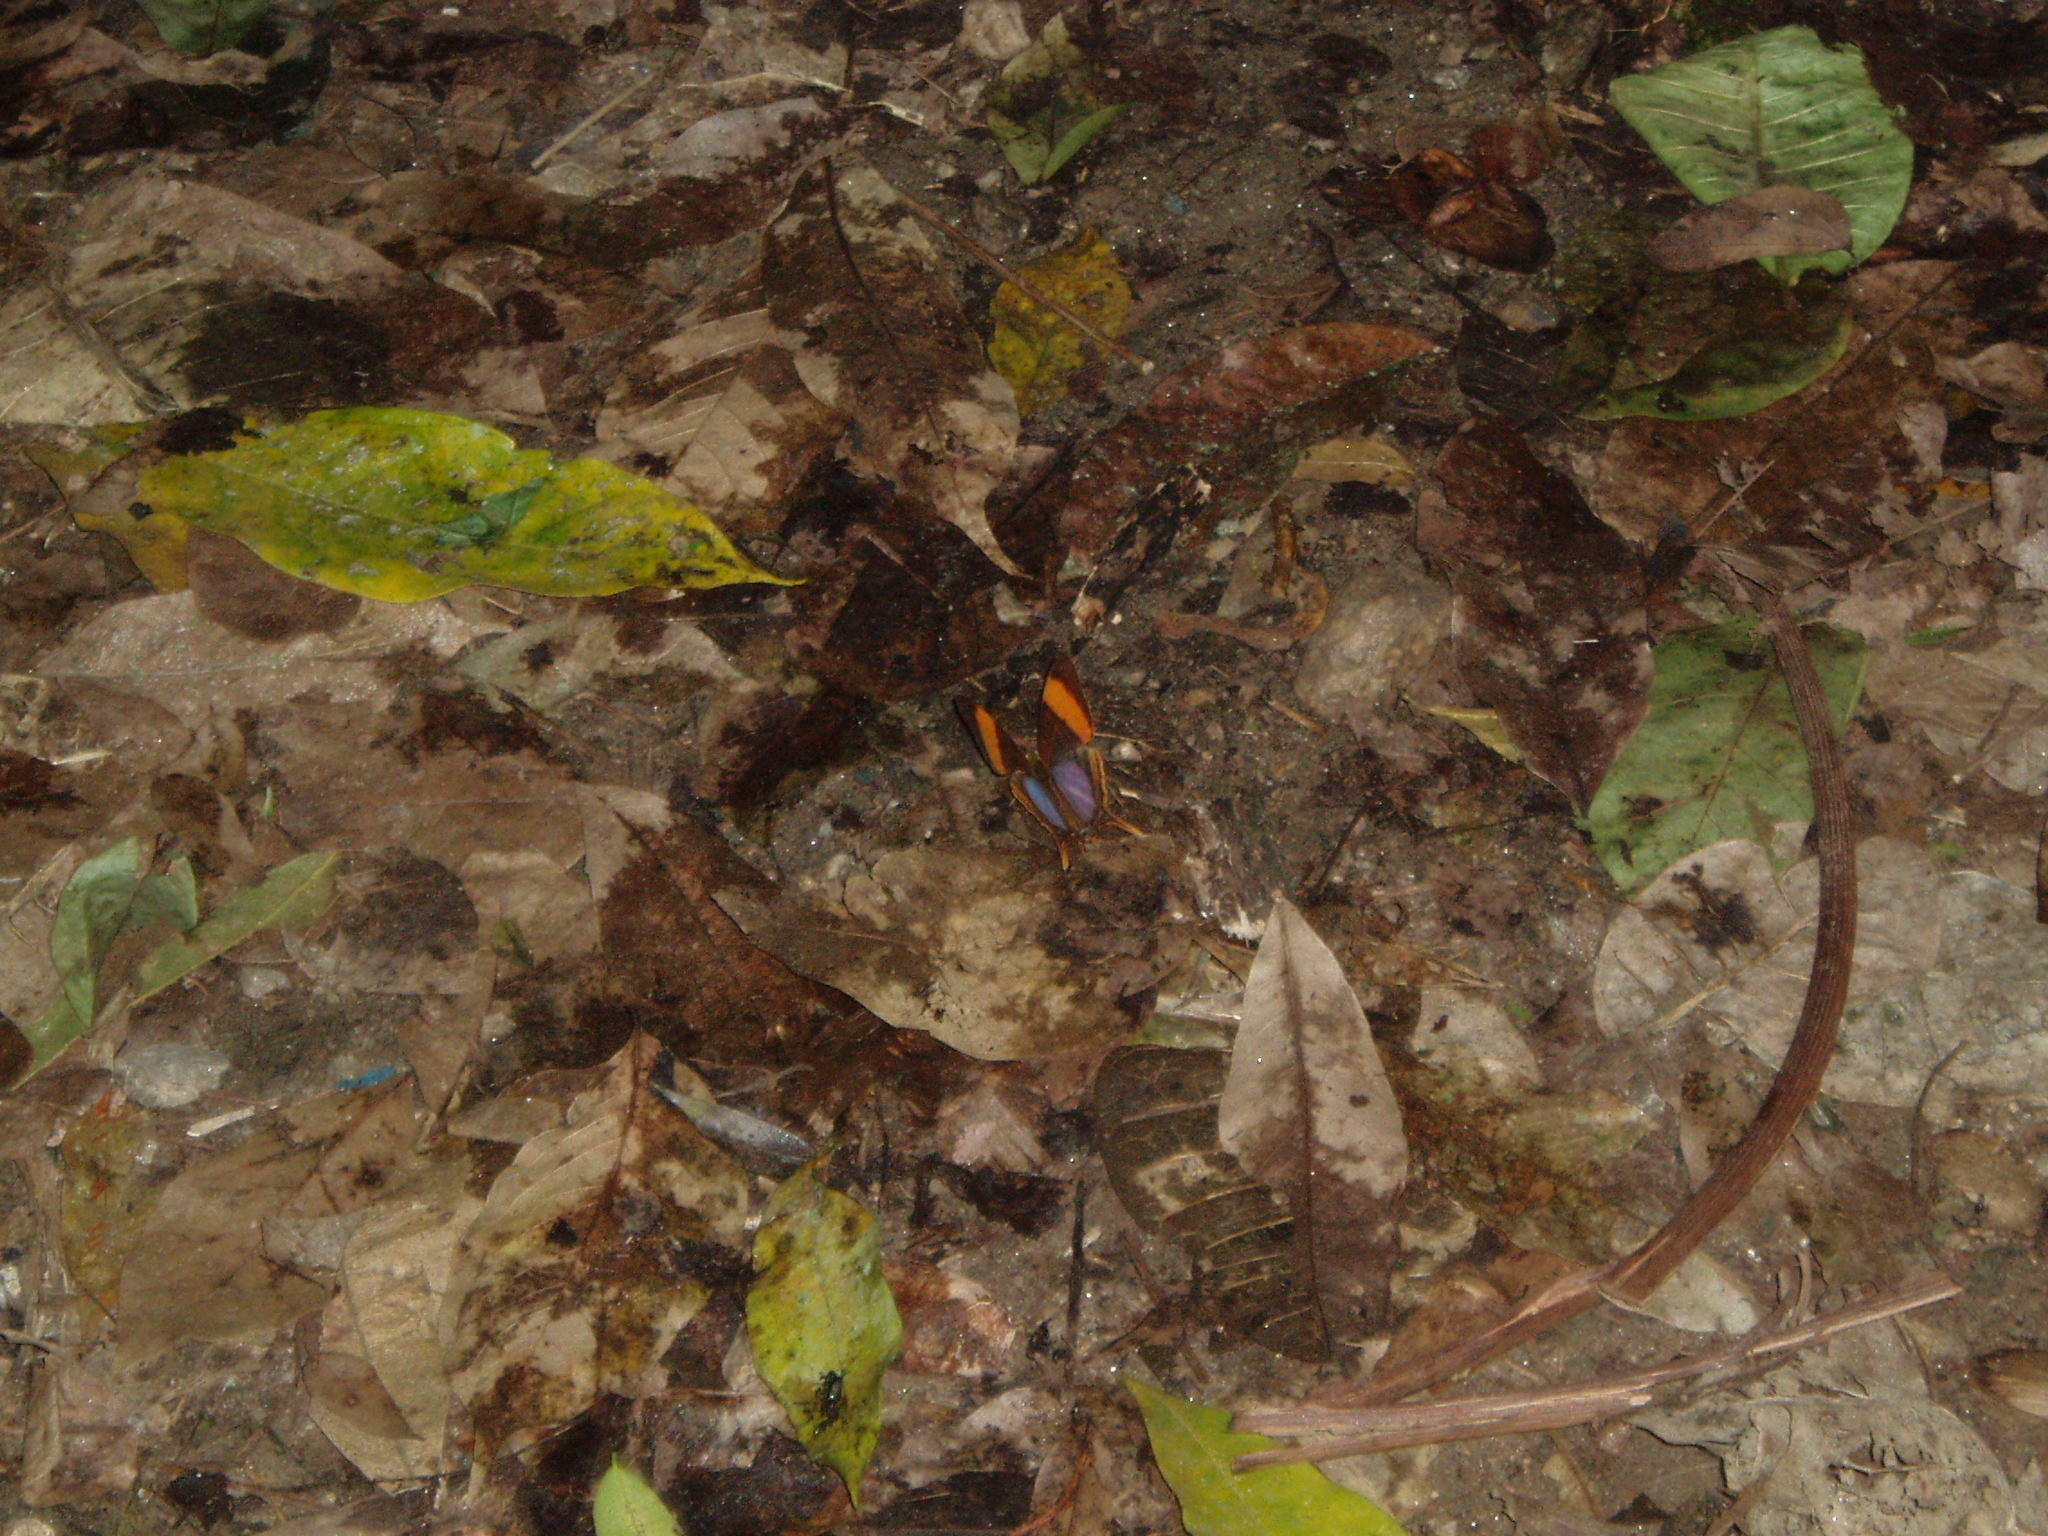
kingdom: Animalia
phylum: Arthropoda
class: Insecta
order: Lepidoptera
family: Nymphalidae
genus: Marpesia
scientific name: Marpesia corinna
